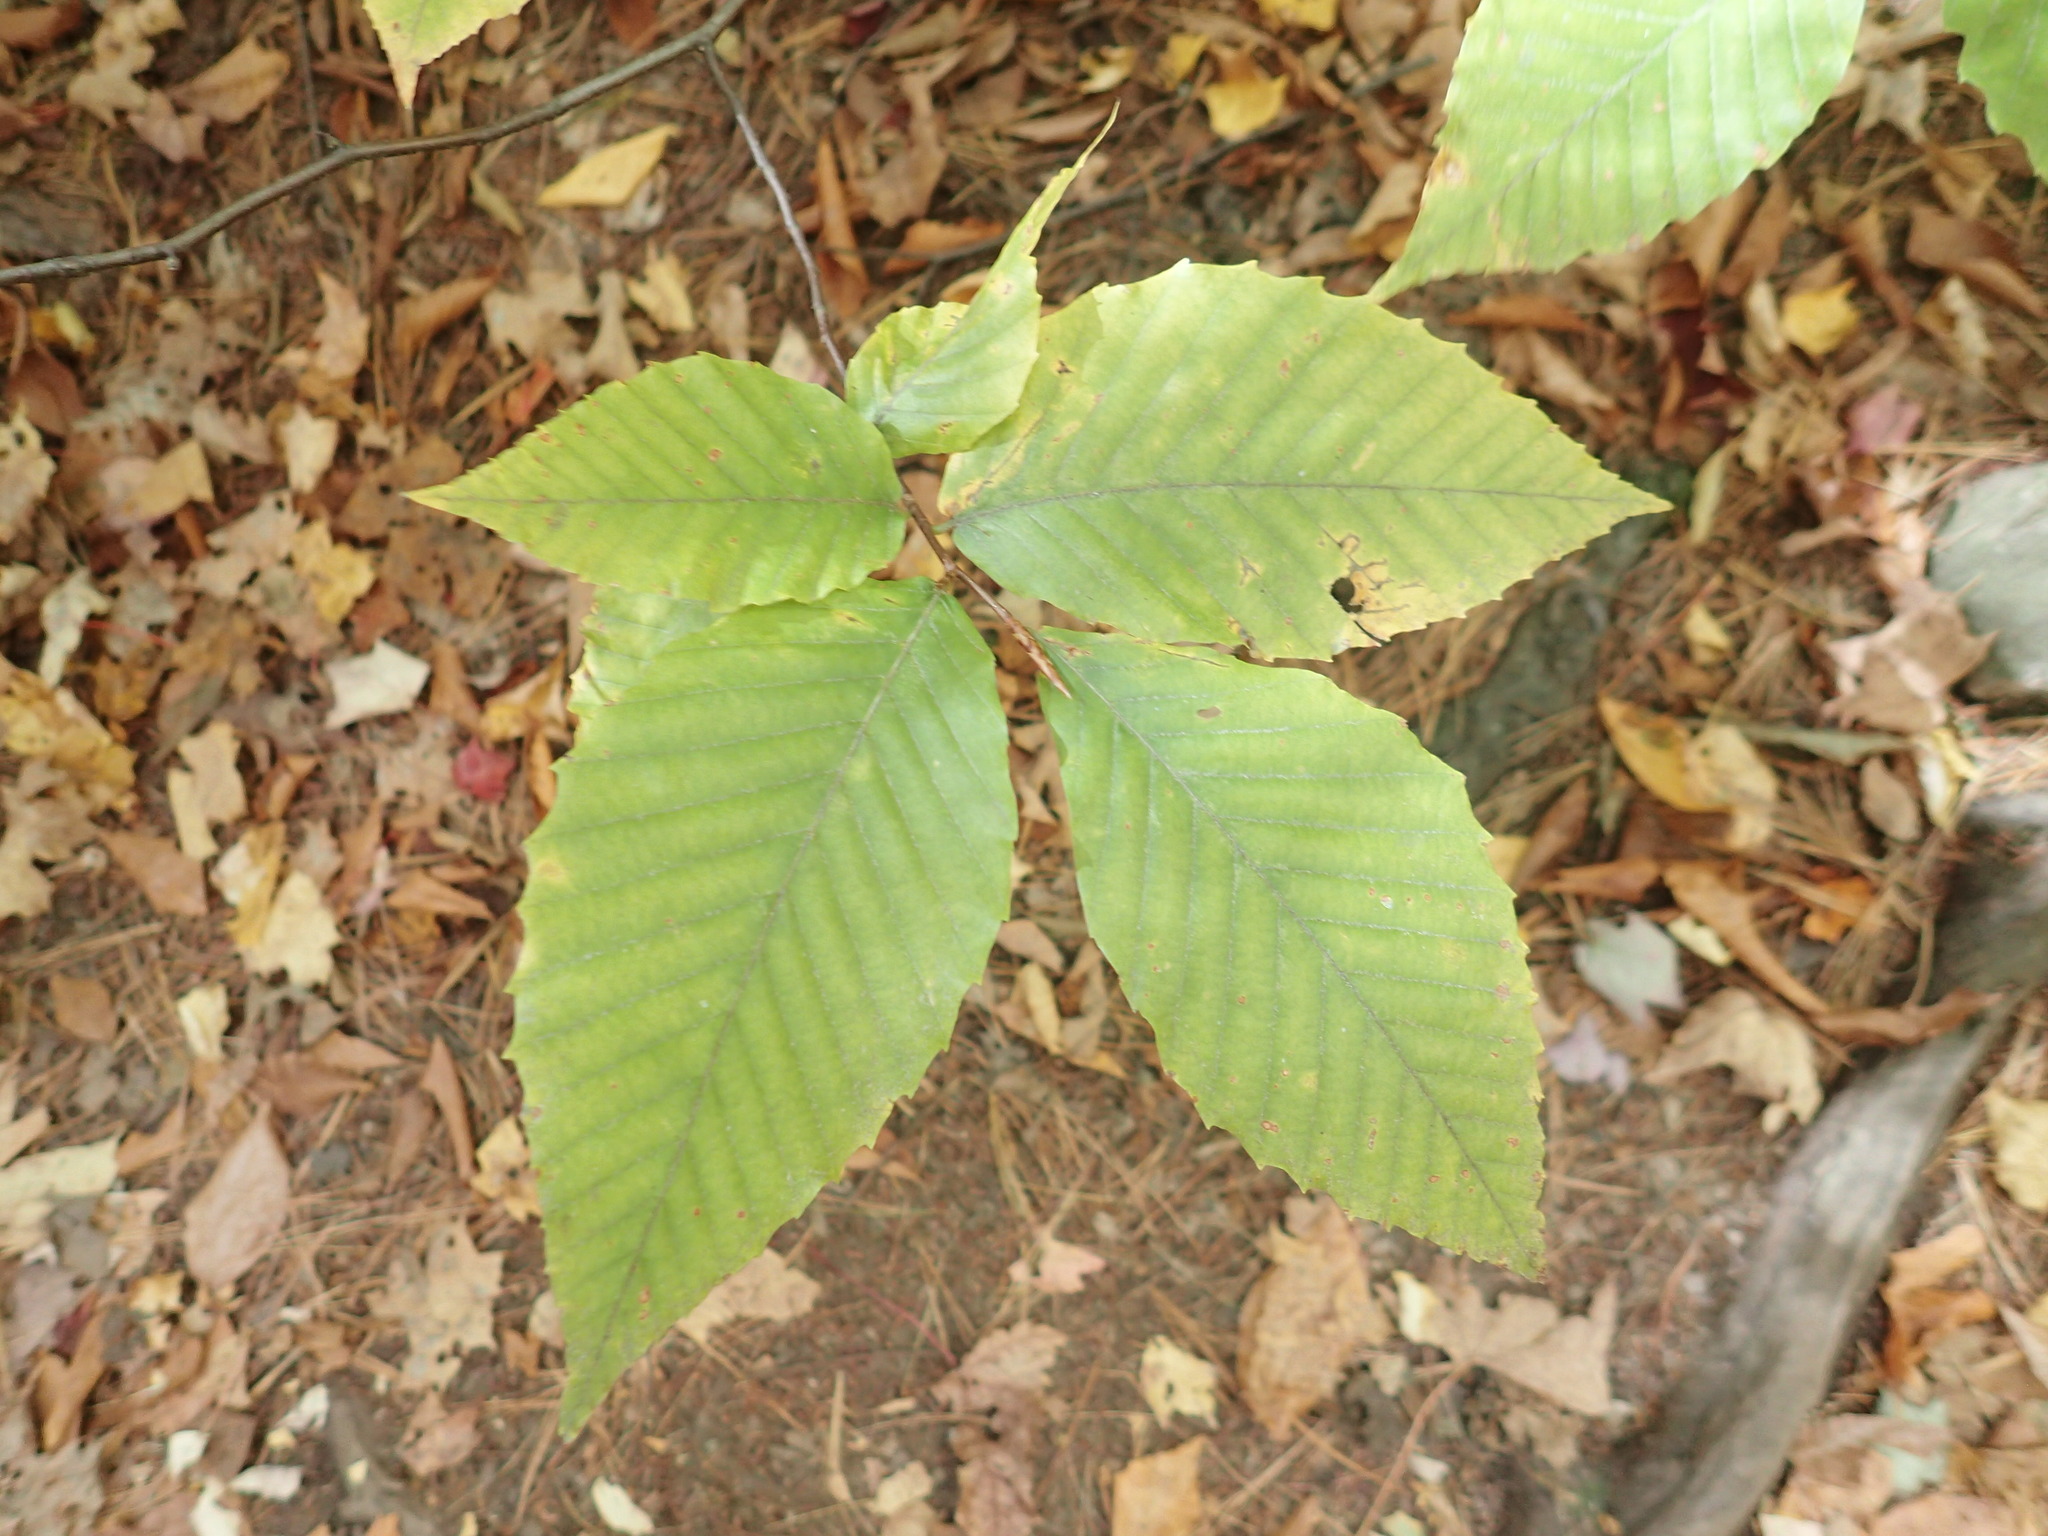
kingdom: Plantae
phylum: Tracheophyta
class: Magnoliopsida
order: Fagales
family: Fagaceae
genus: Fagus
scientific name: Fagus grandifolia
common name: American beech
